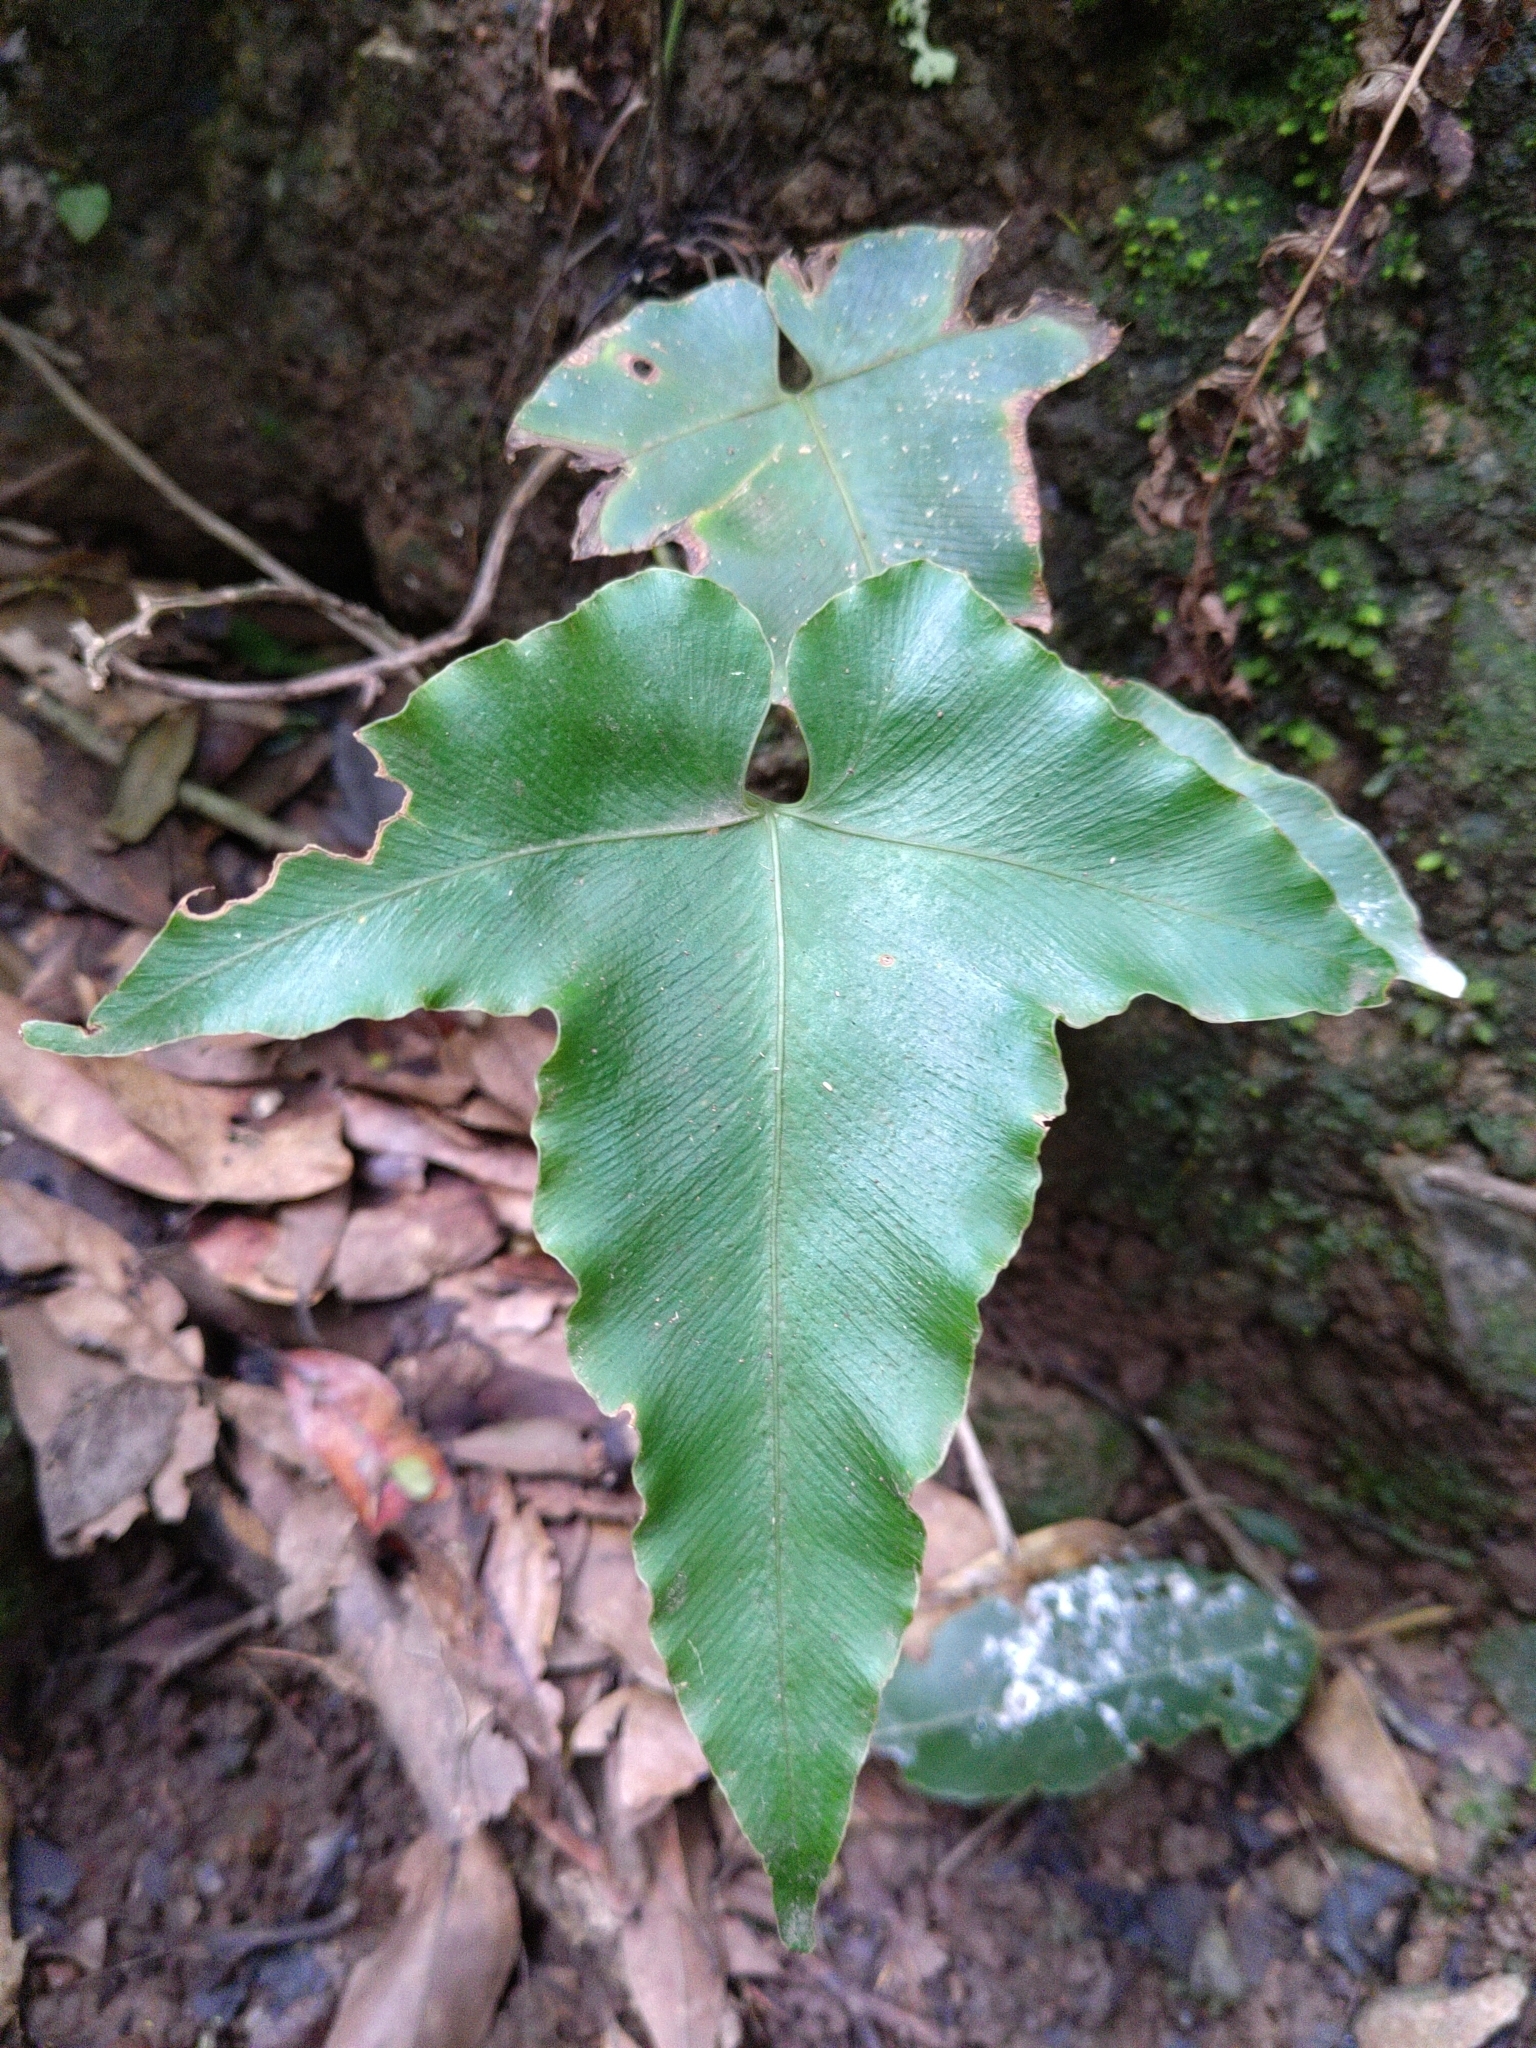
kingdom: Plantae
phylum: Tracheophyta
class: Polypodiopsida
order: Polypodiales
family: Aspleniaceae
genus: Asplenium
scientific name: Asplenium hemionitis
